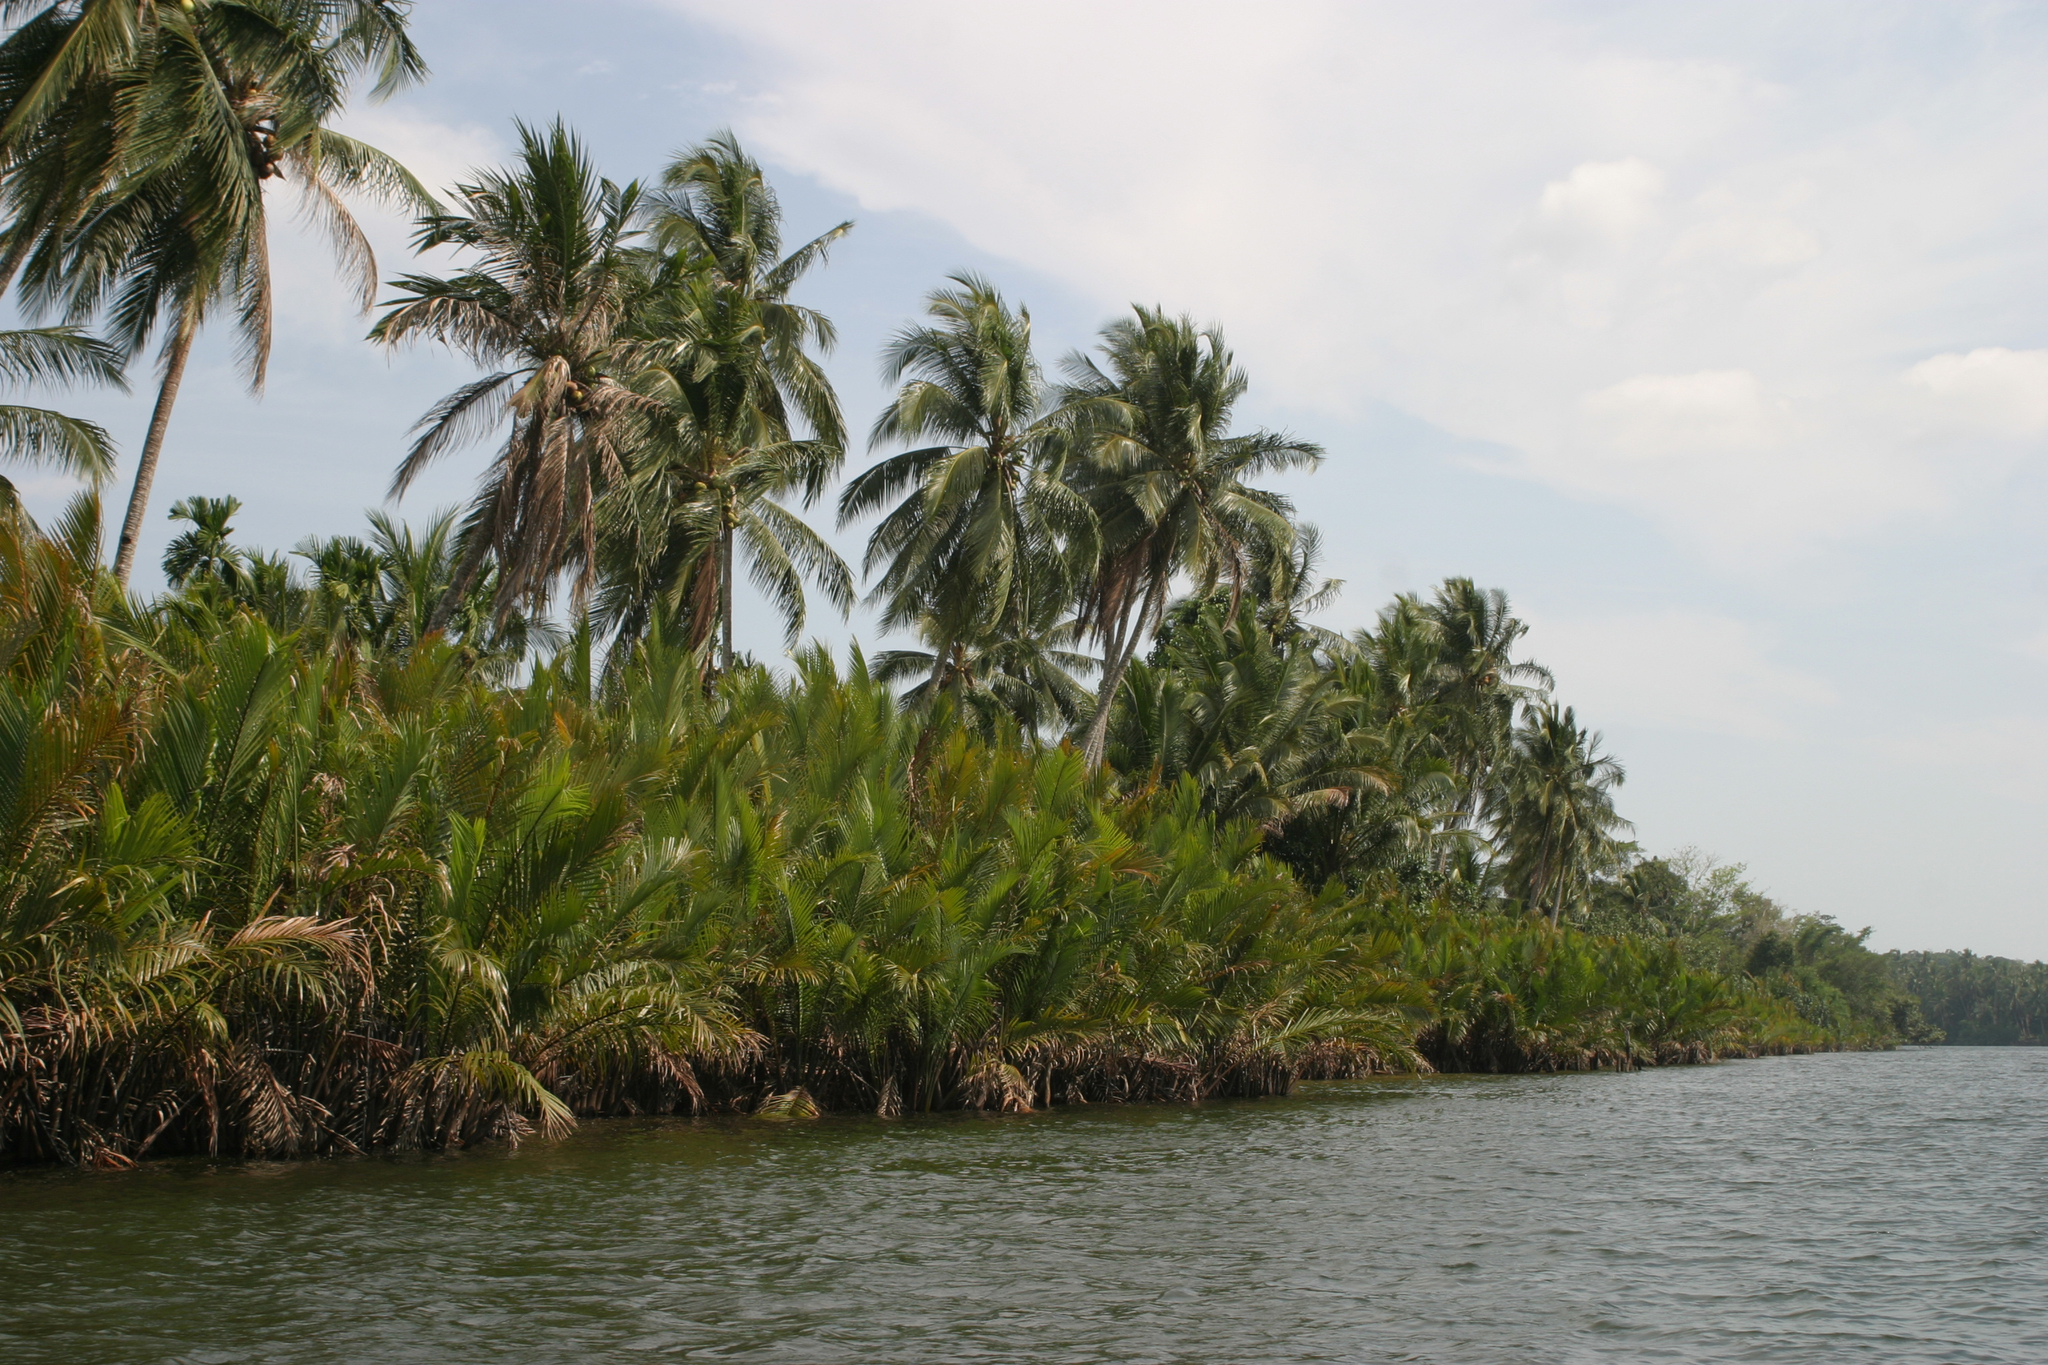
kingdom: Plantae
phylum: Tracheophyta
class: Liliopsida
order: Arecales
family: Arecaceae
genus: Cocos
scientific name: Cocos nucifera
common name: Coconut palm
